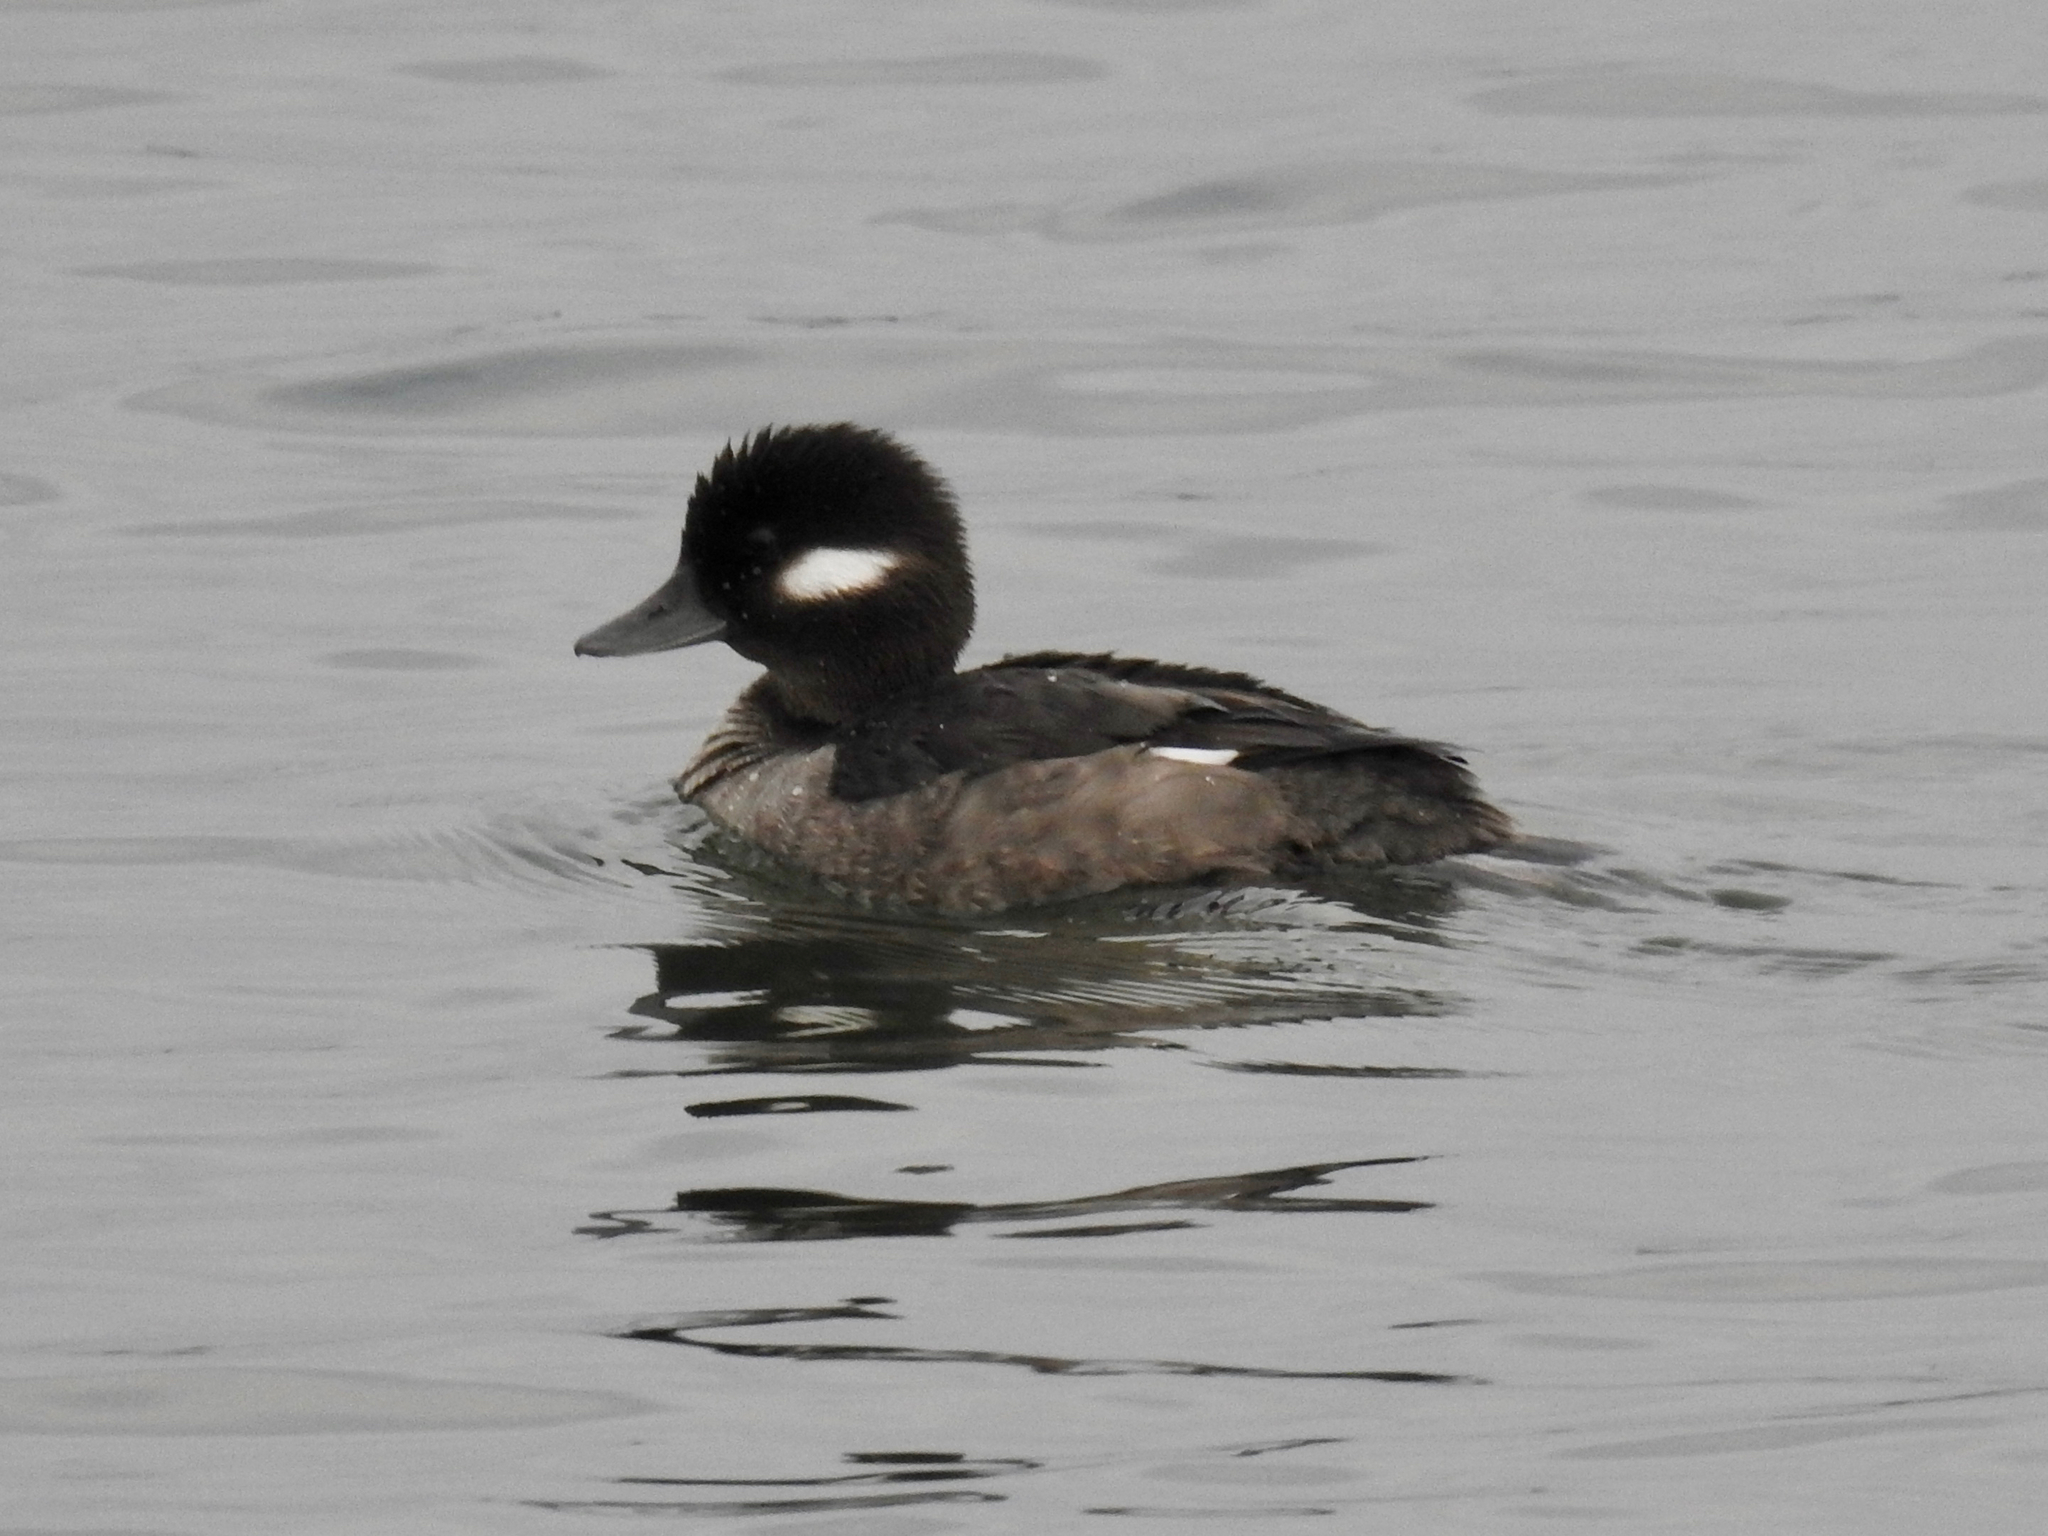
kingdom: Animalia
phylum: Chordata
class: Aves
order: Anseriformes
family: Anatidae
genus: Bucephala
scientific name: Bucephala albeola
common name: Bufflehead
